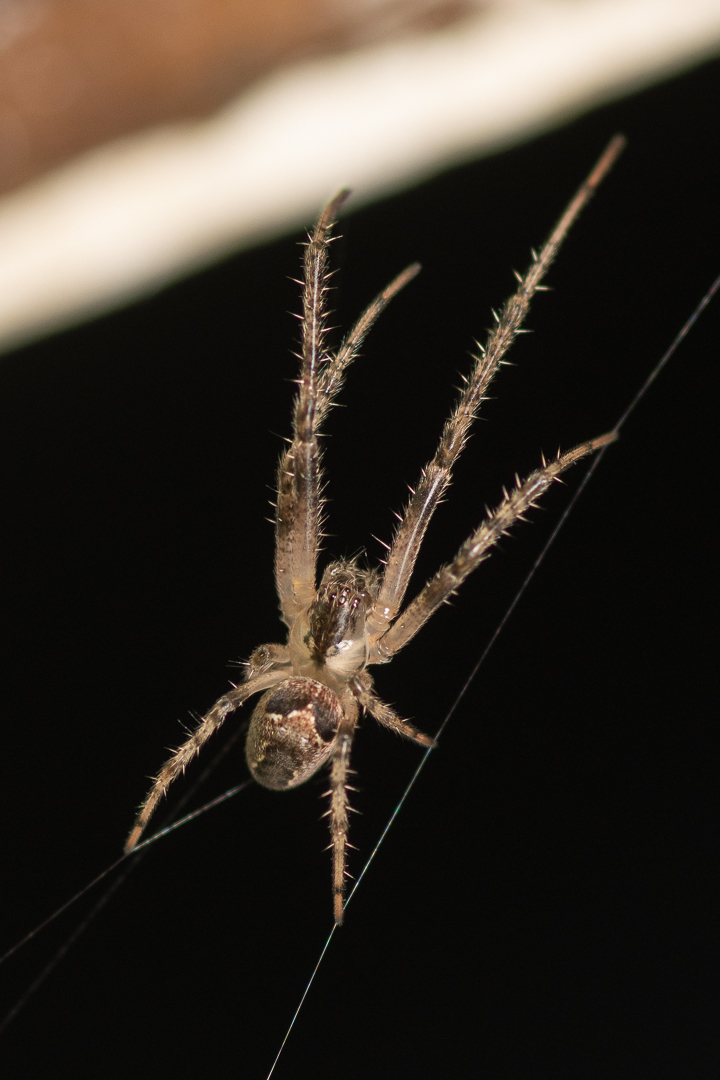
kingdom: Animalia
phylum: Arthropoda
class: Arachnida
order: Araneae
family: Tetragnathidae
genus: Allende
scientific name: Allende nigrohumeralis
